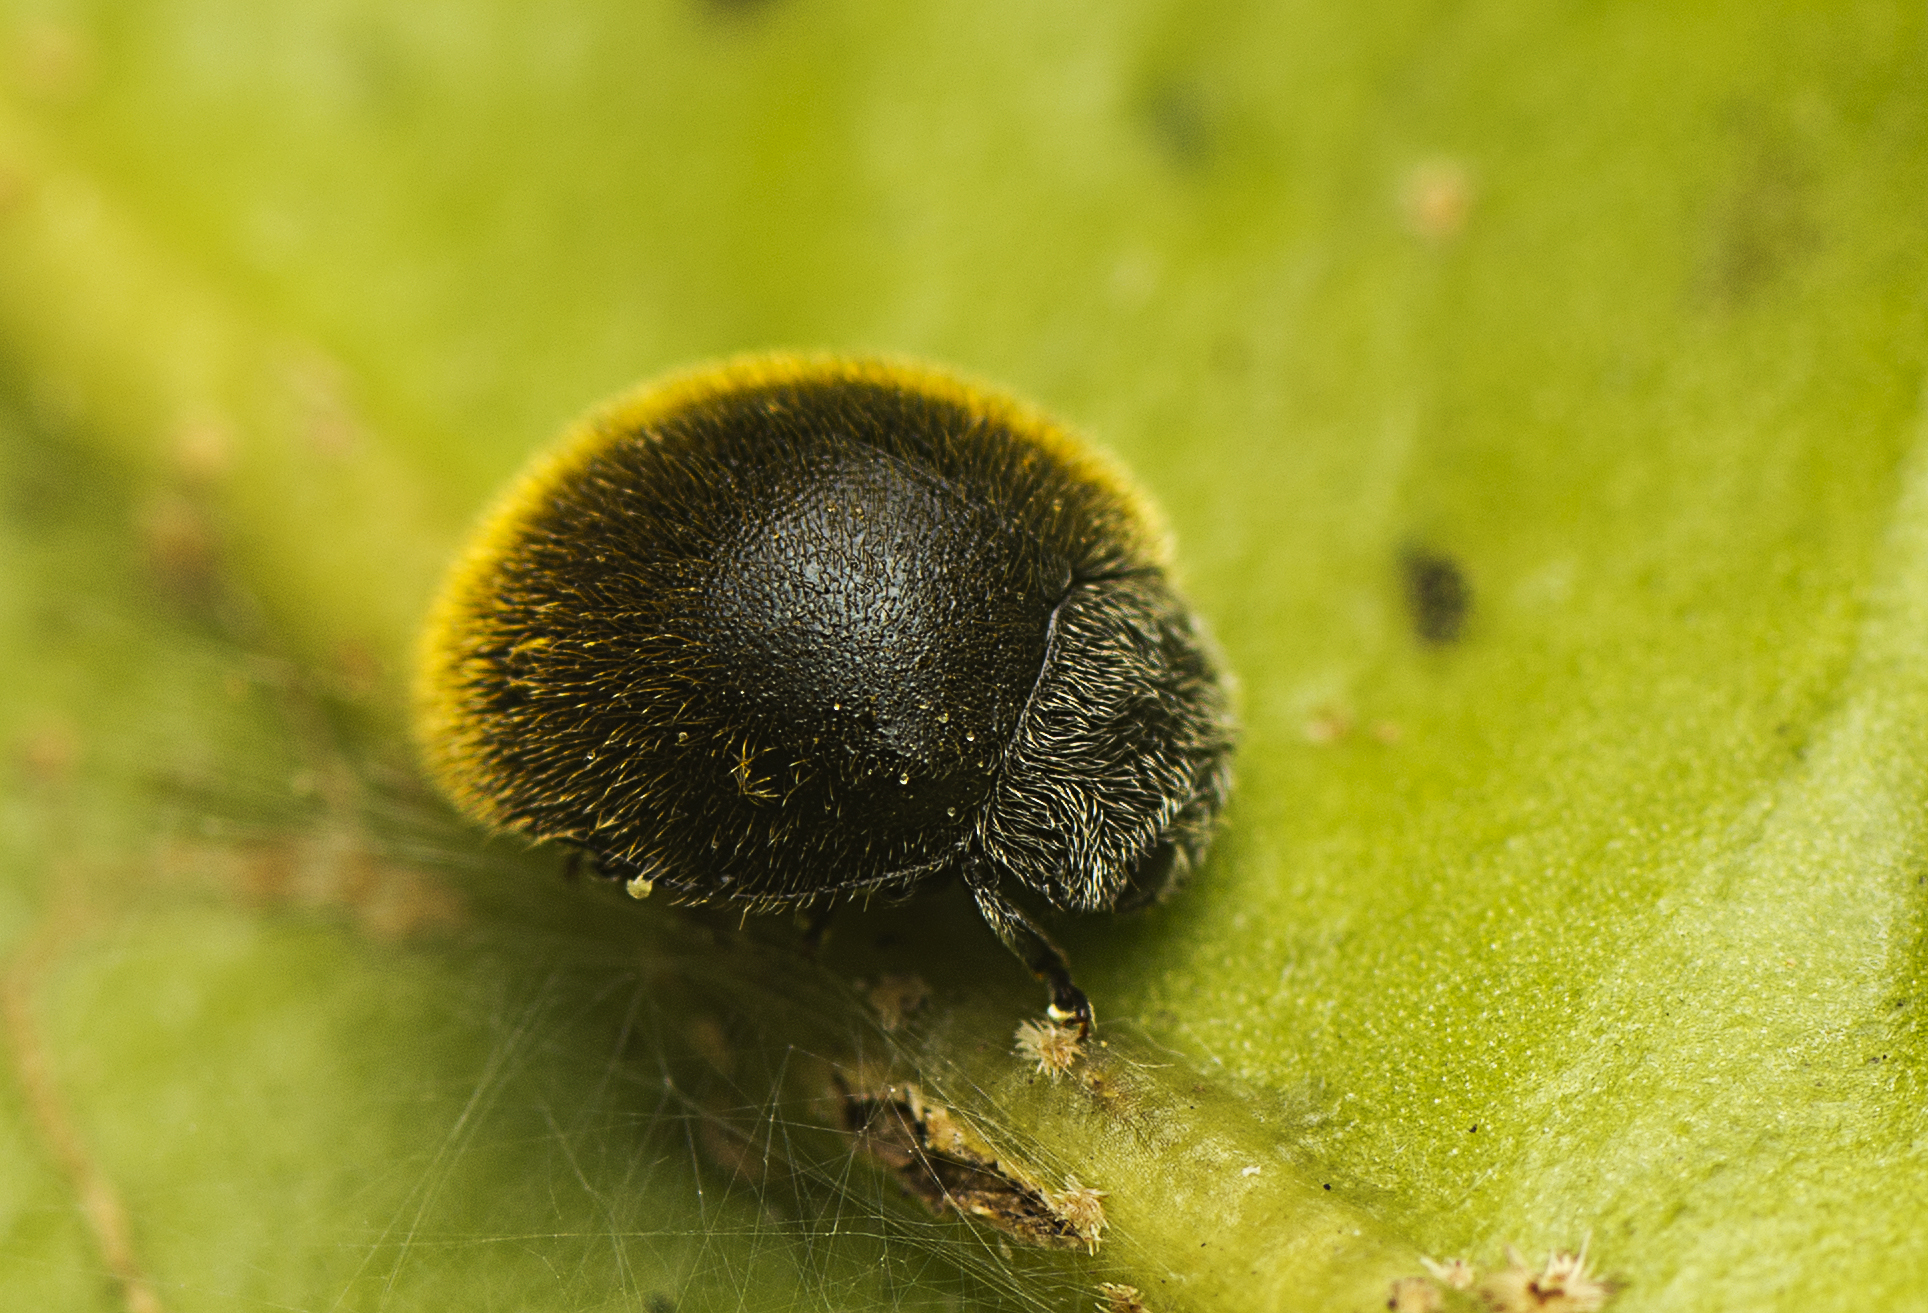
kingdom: Animalia
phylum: Arthropoda
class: Insecta
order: Coleoptera
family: Coccinellidae
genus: Erithionyx
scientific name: Erithionyx
